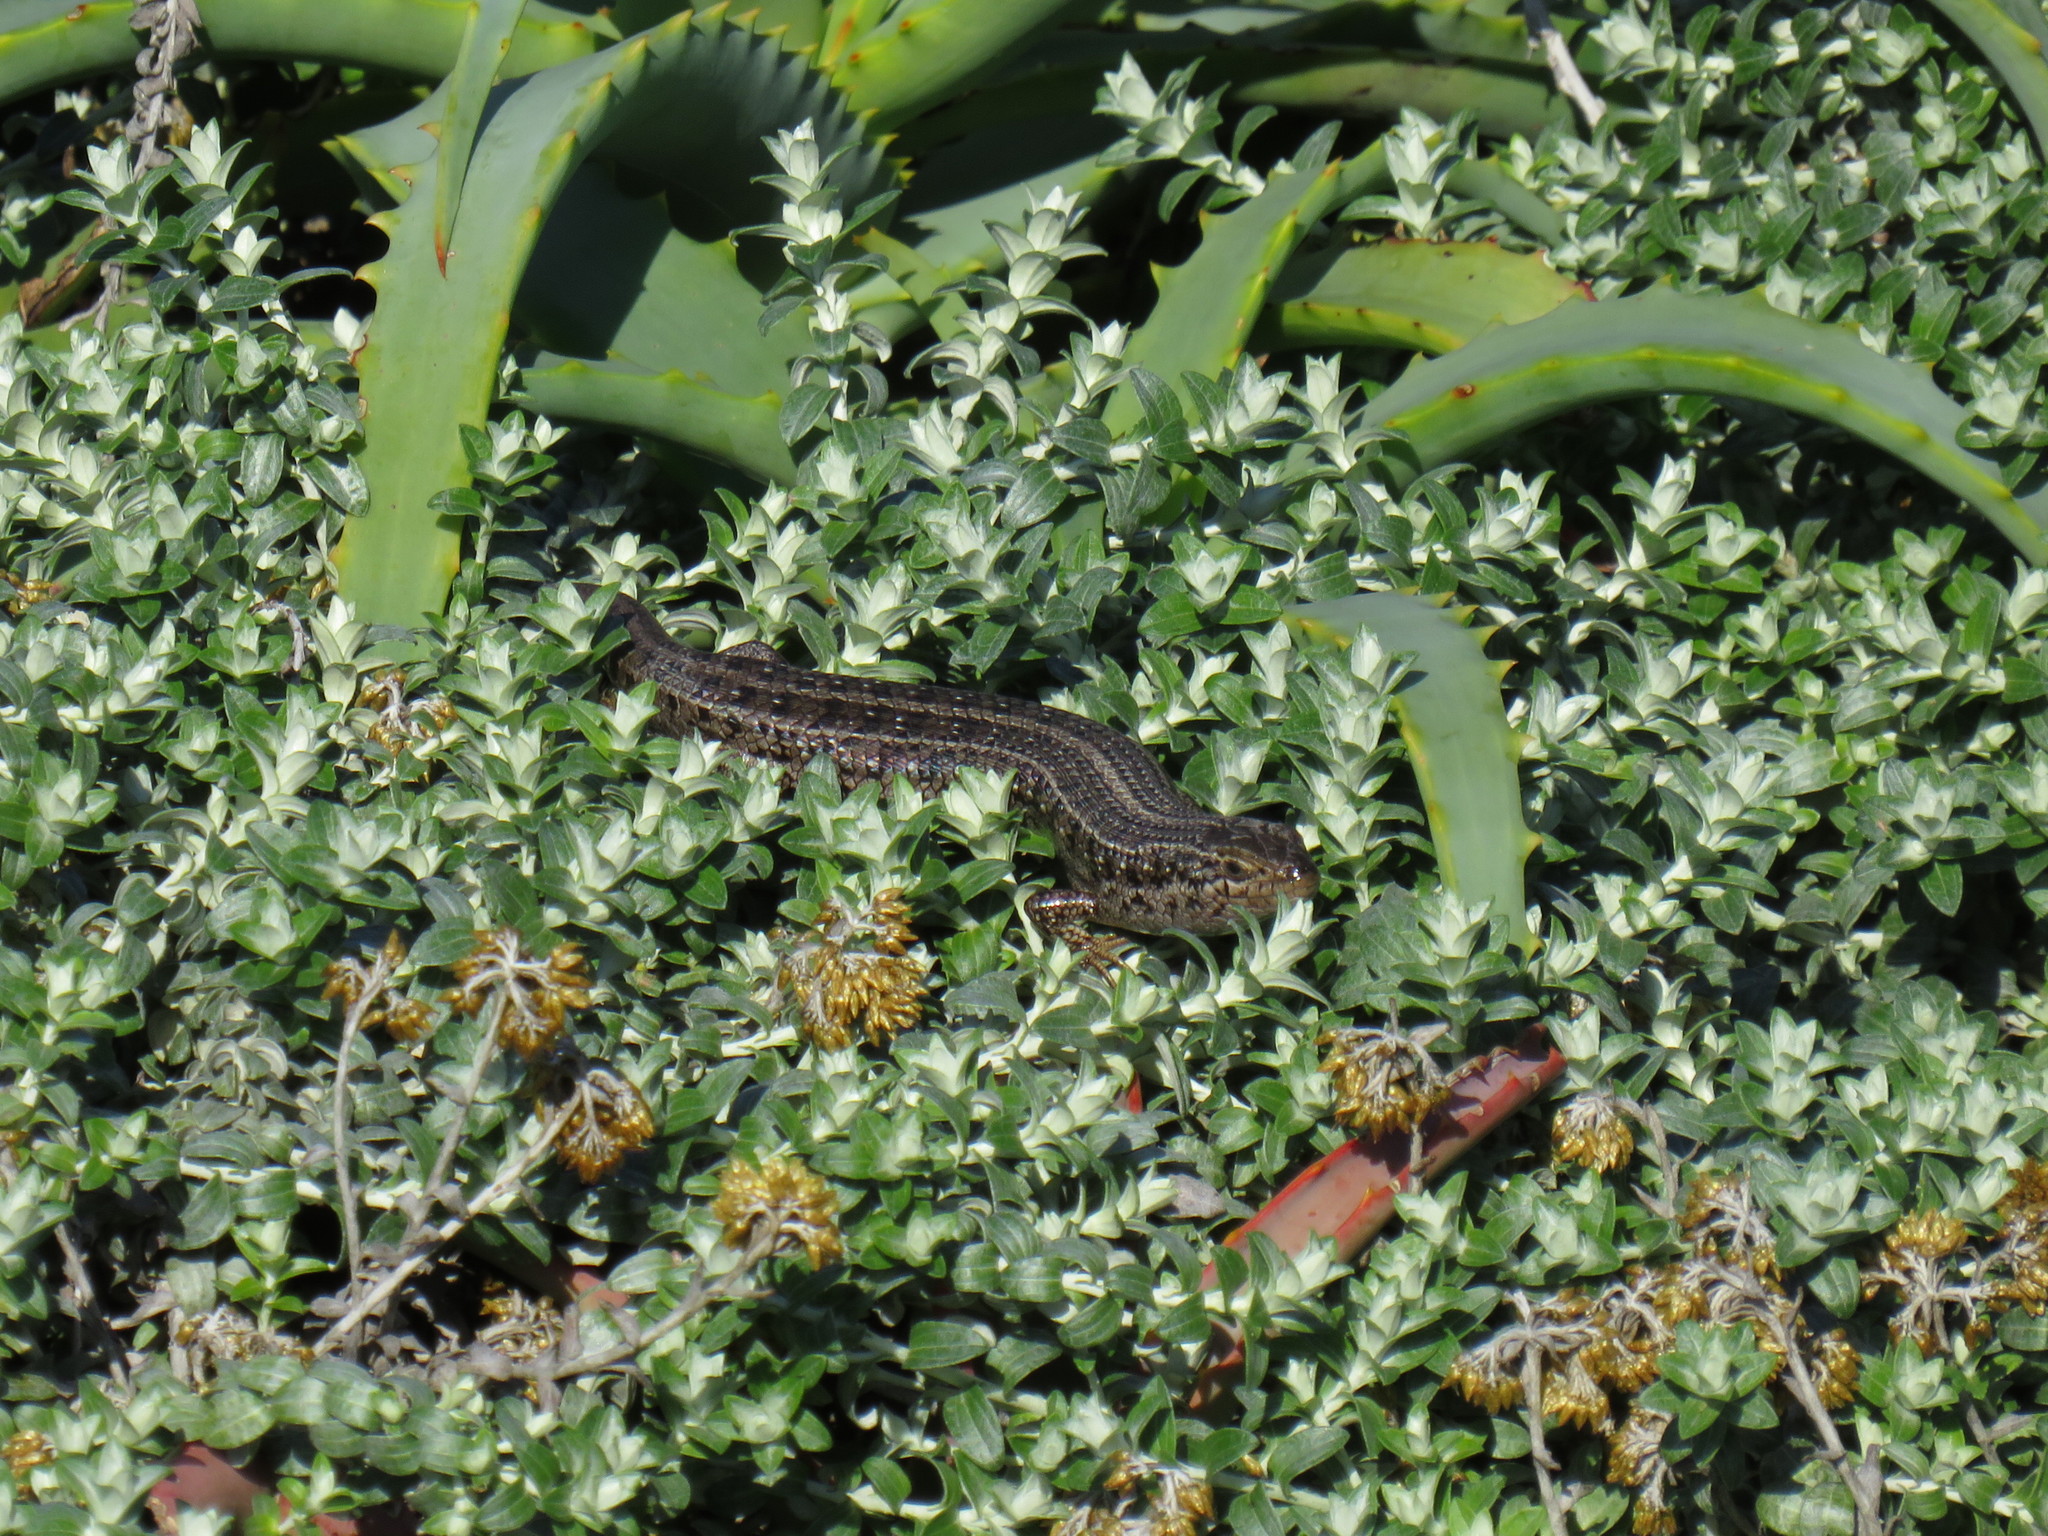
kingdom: Animalia
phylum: Chordata
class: Squamata
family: Scincidae
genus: Trachylepis
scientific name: Trachylepis capensis
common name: Cape skink
